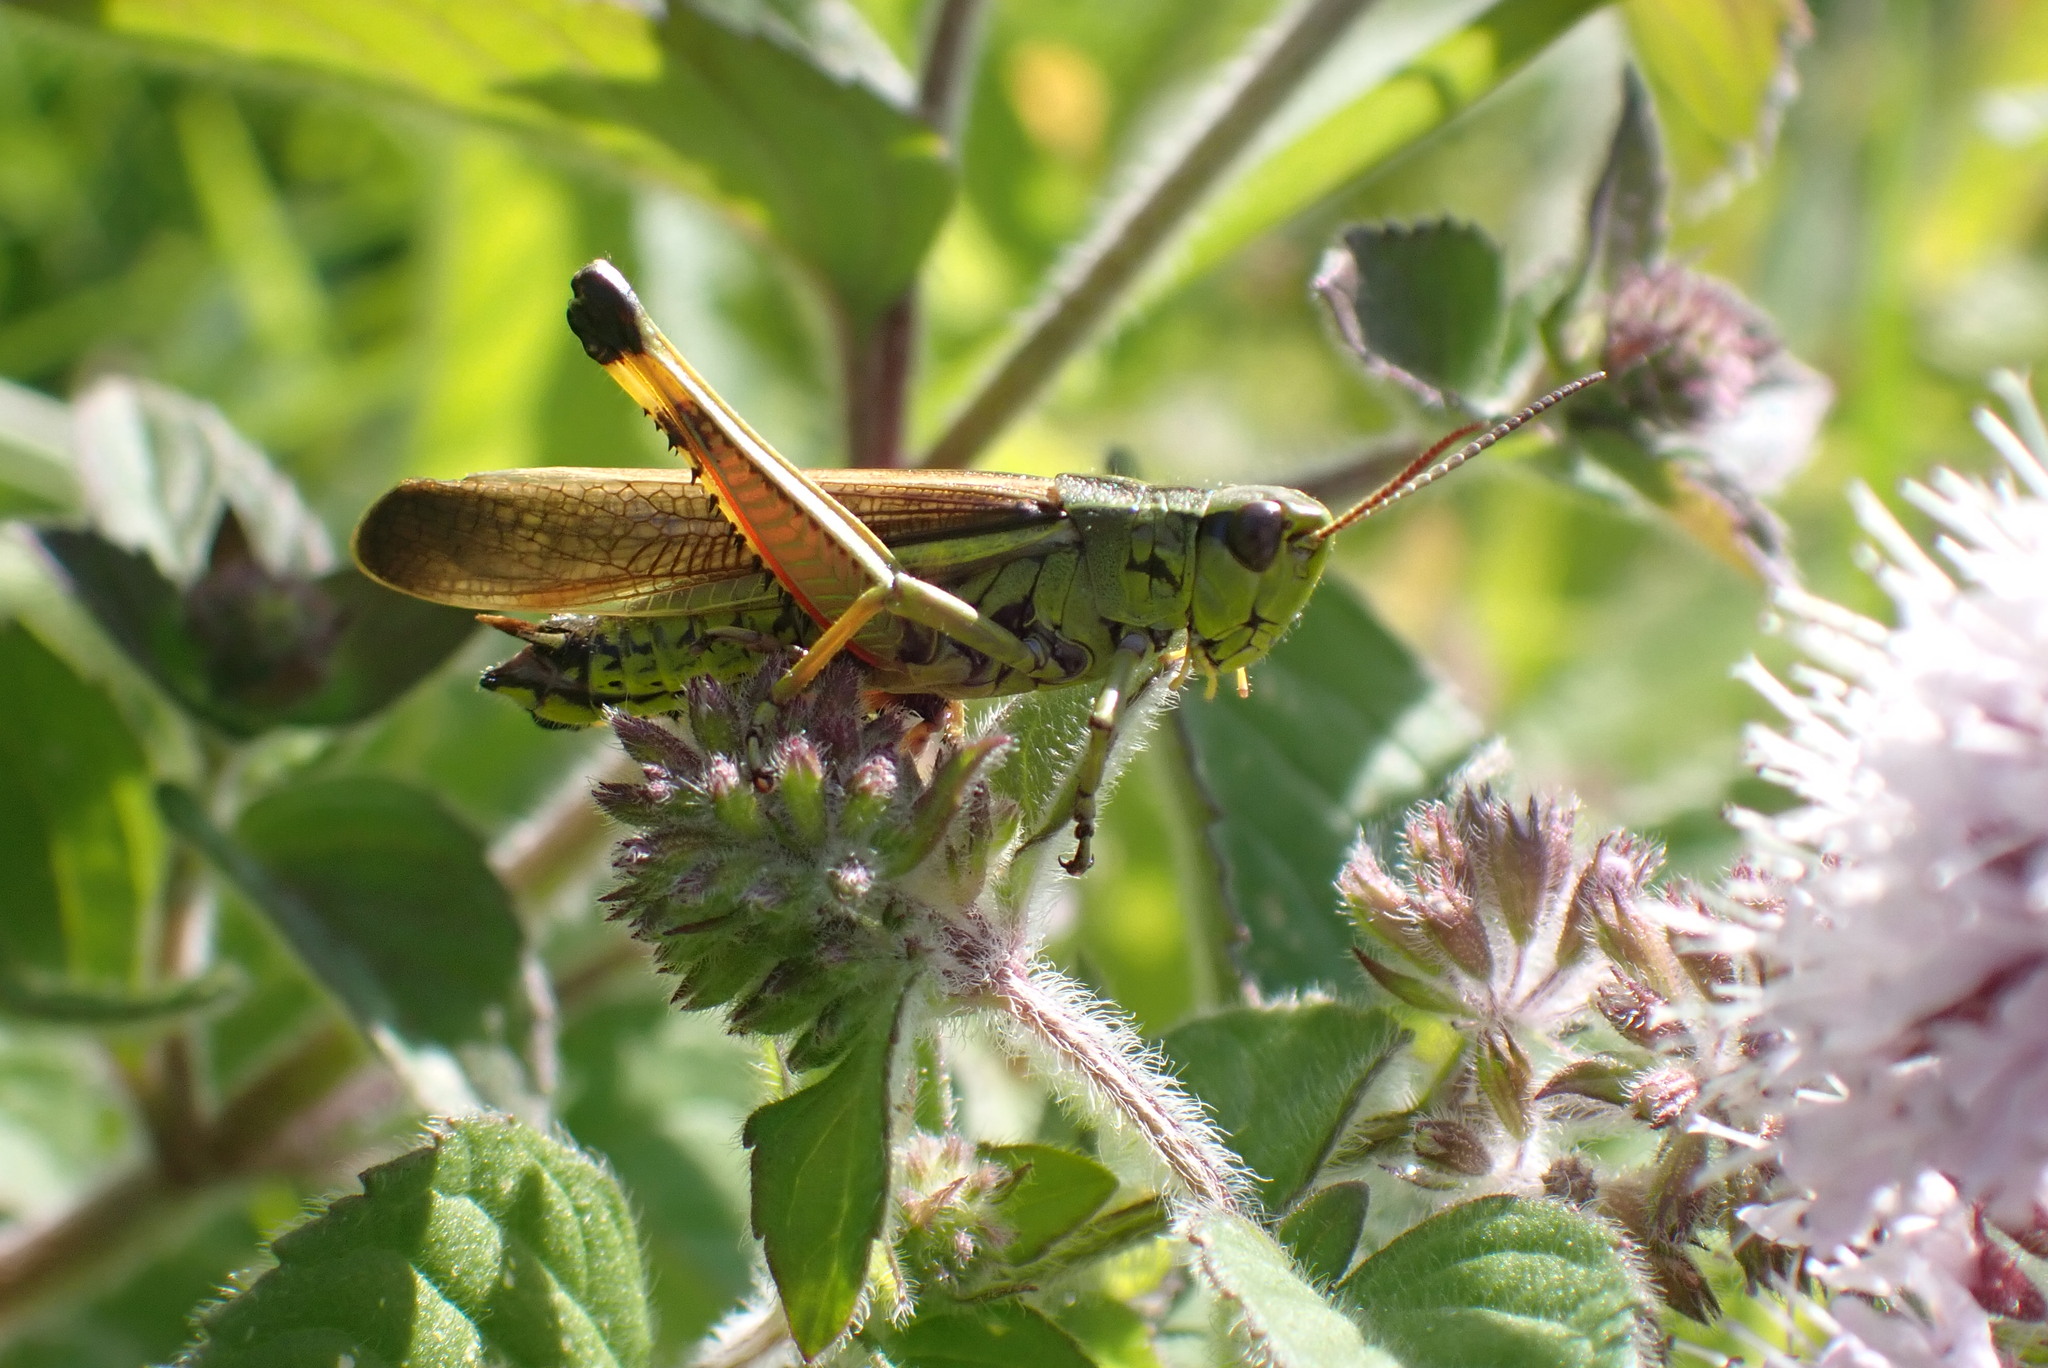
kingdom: Animalia
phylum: Arthropoda
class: Insecta
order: Orthoptera
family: Acrididae
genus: Stethophyma
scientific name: Stethophyma grossum
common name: Large marsh grasshopper
